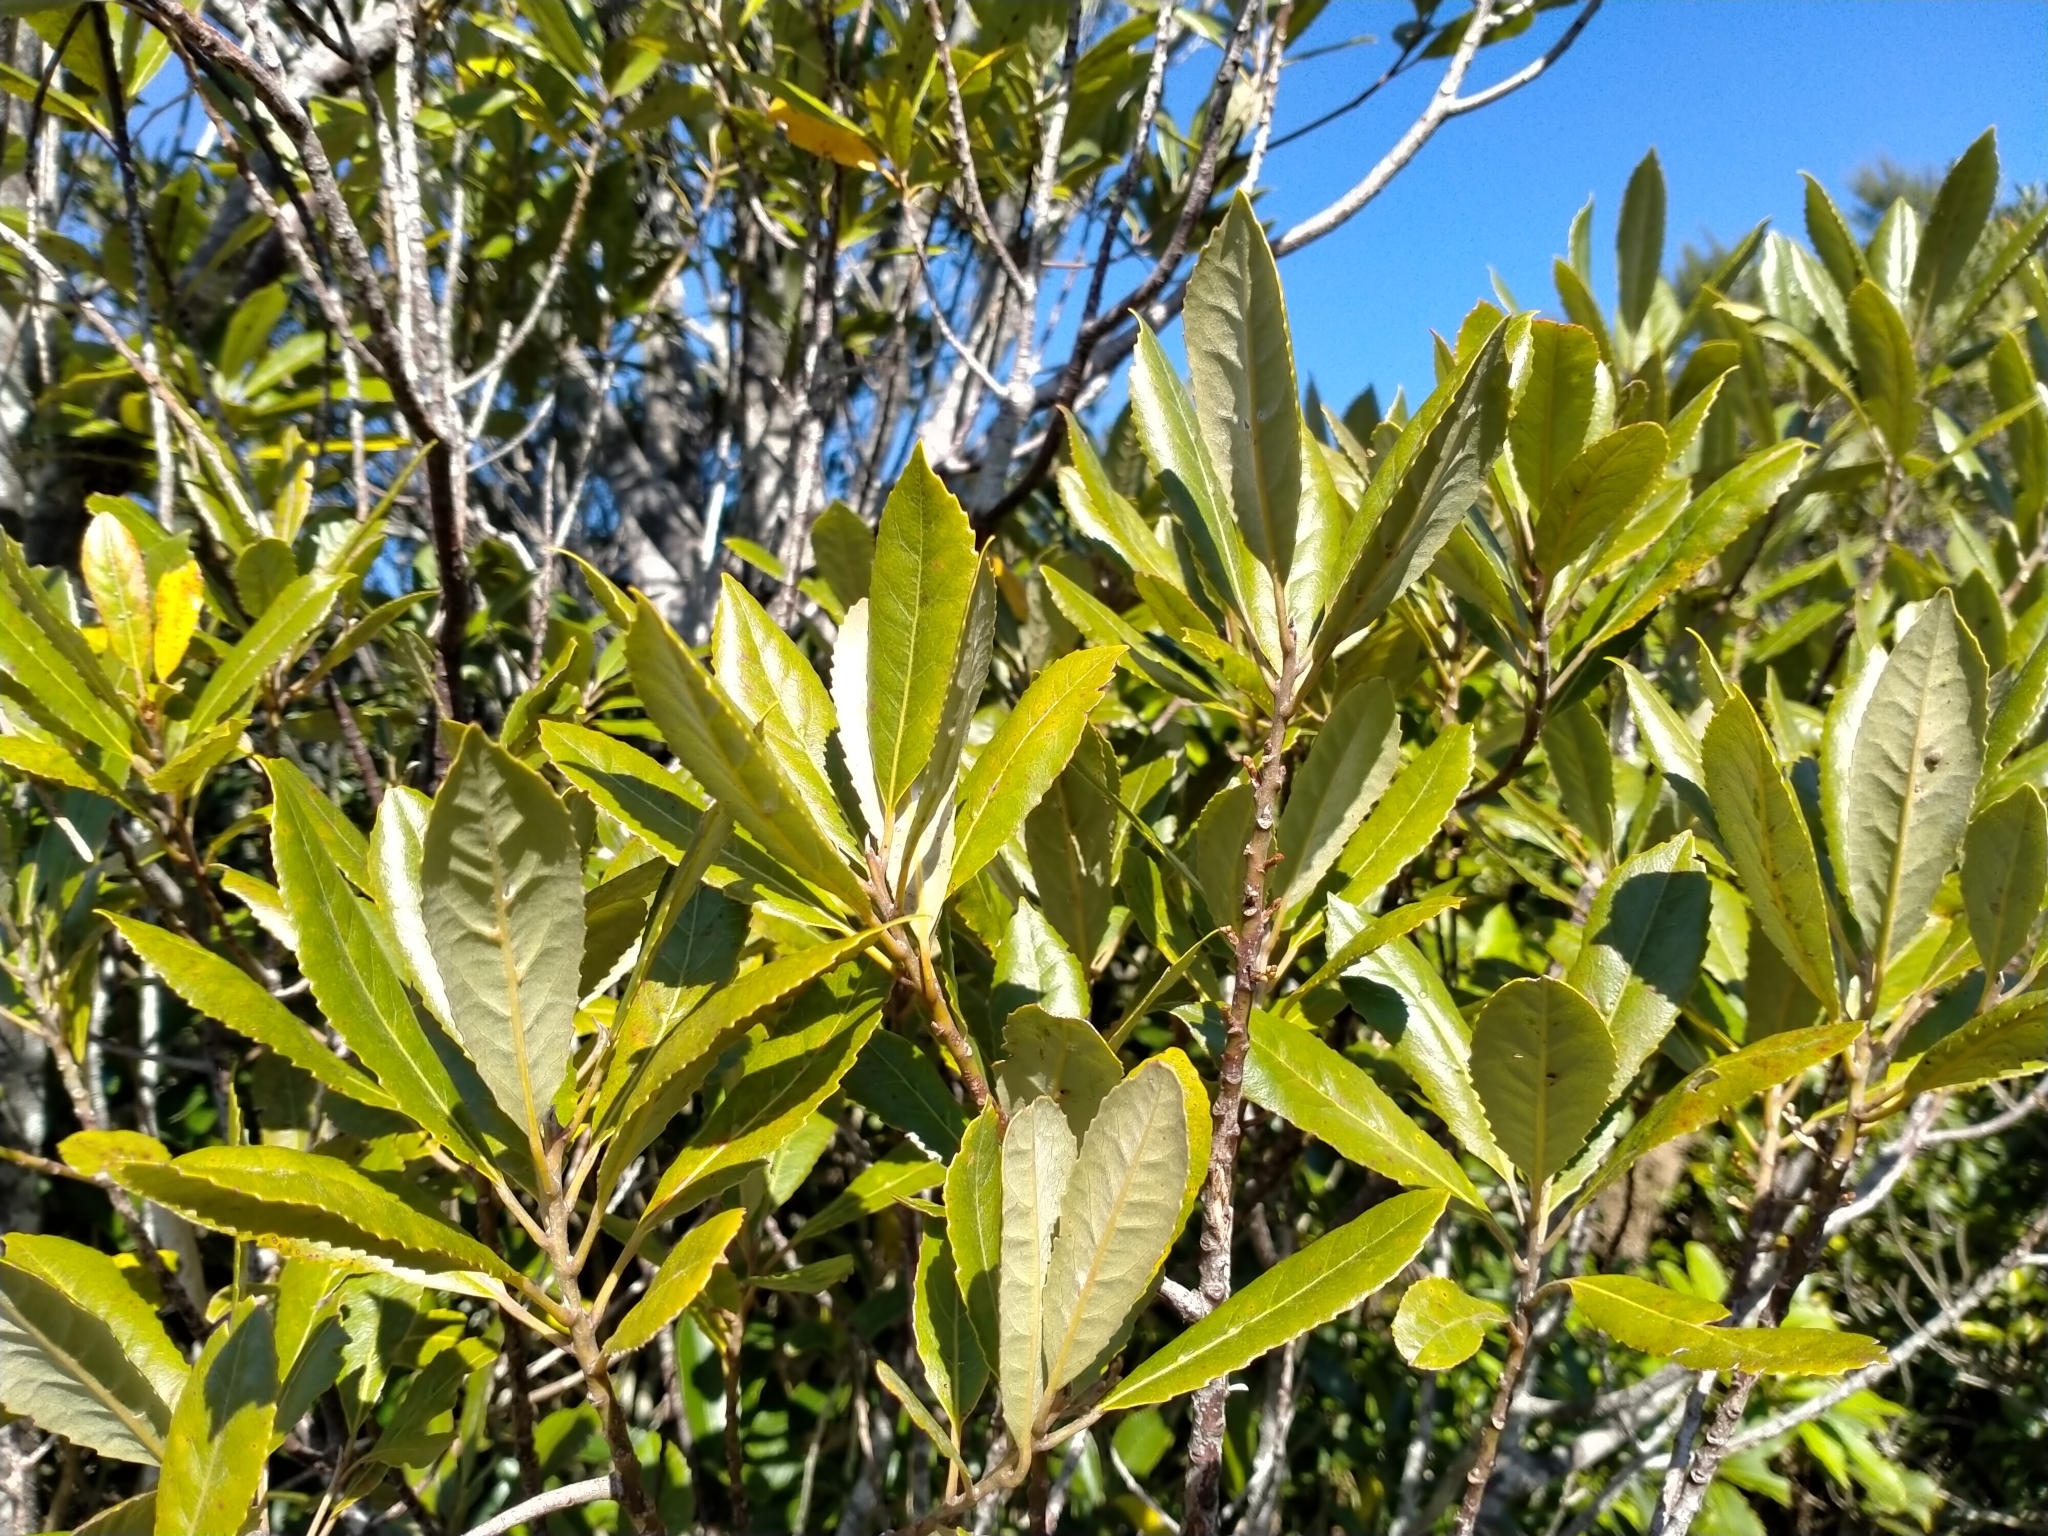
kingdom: Plantae
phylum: Tracheophyta
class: Magnoliopsida
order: Oxalidales
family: Elaeocarpaceae
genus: Elaeocarpus
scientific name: Elaeocarpus dentatus
